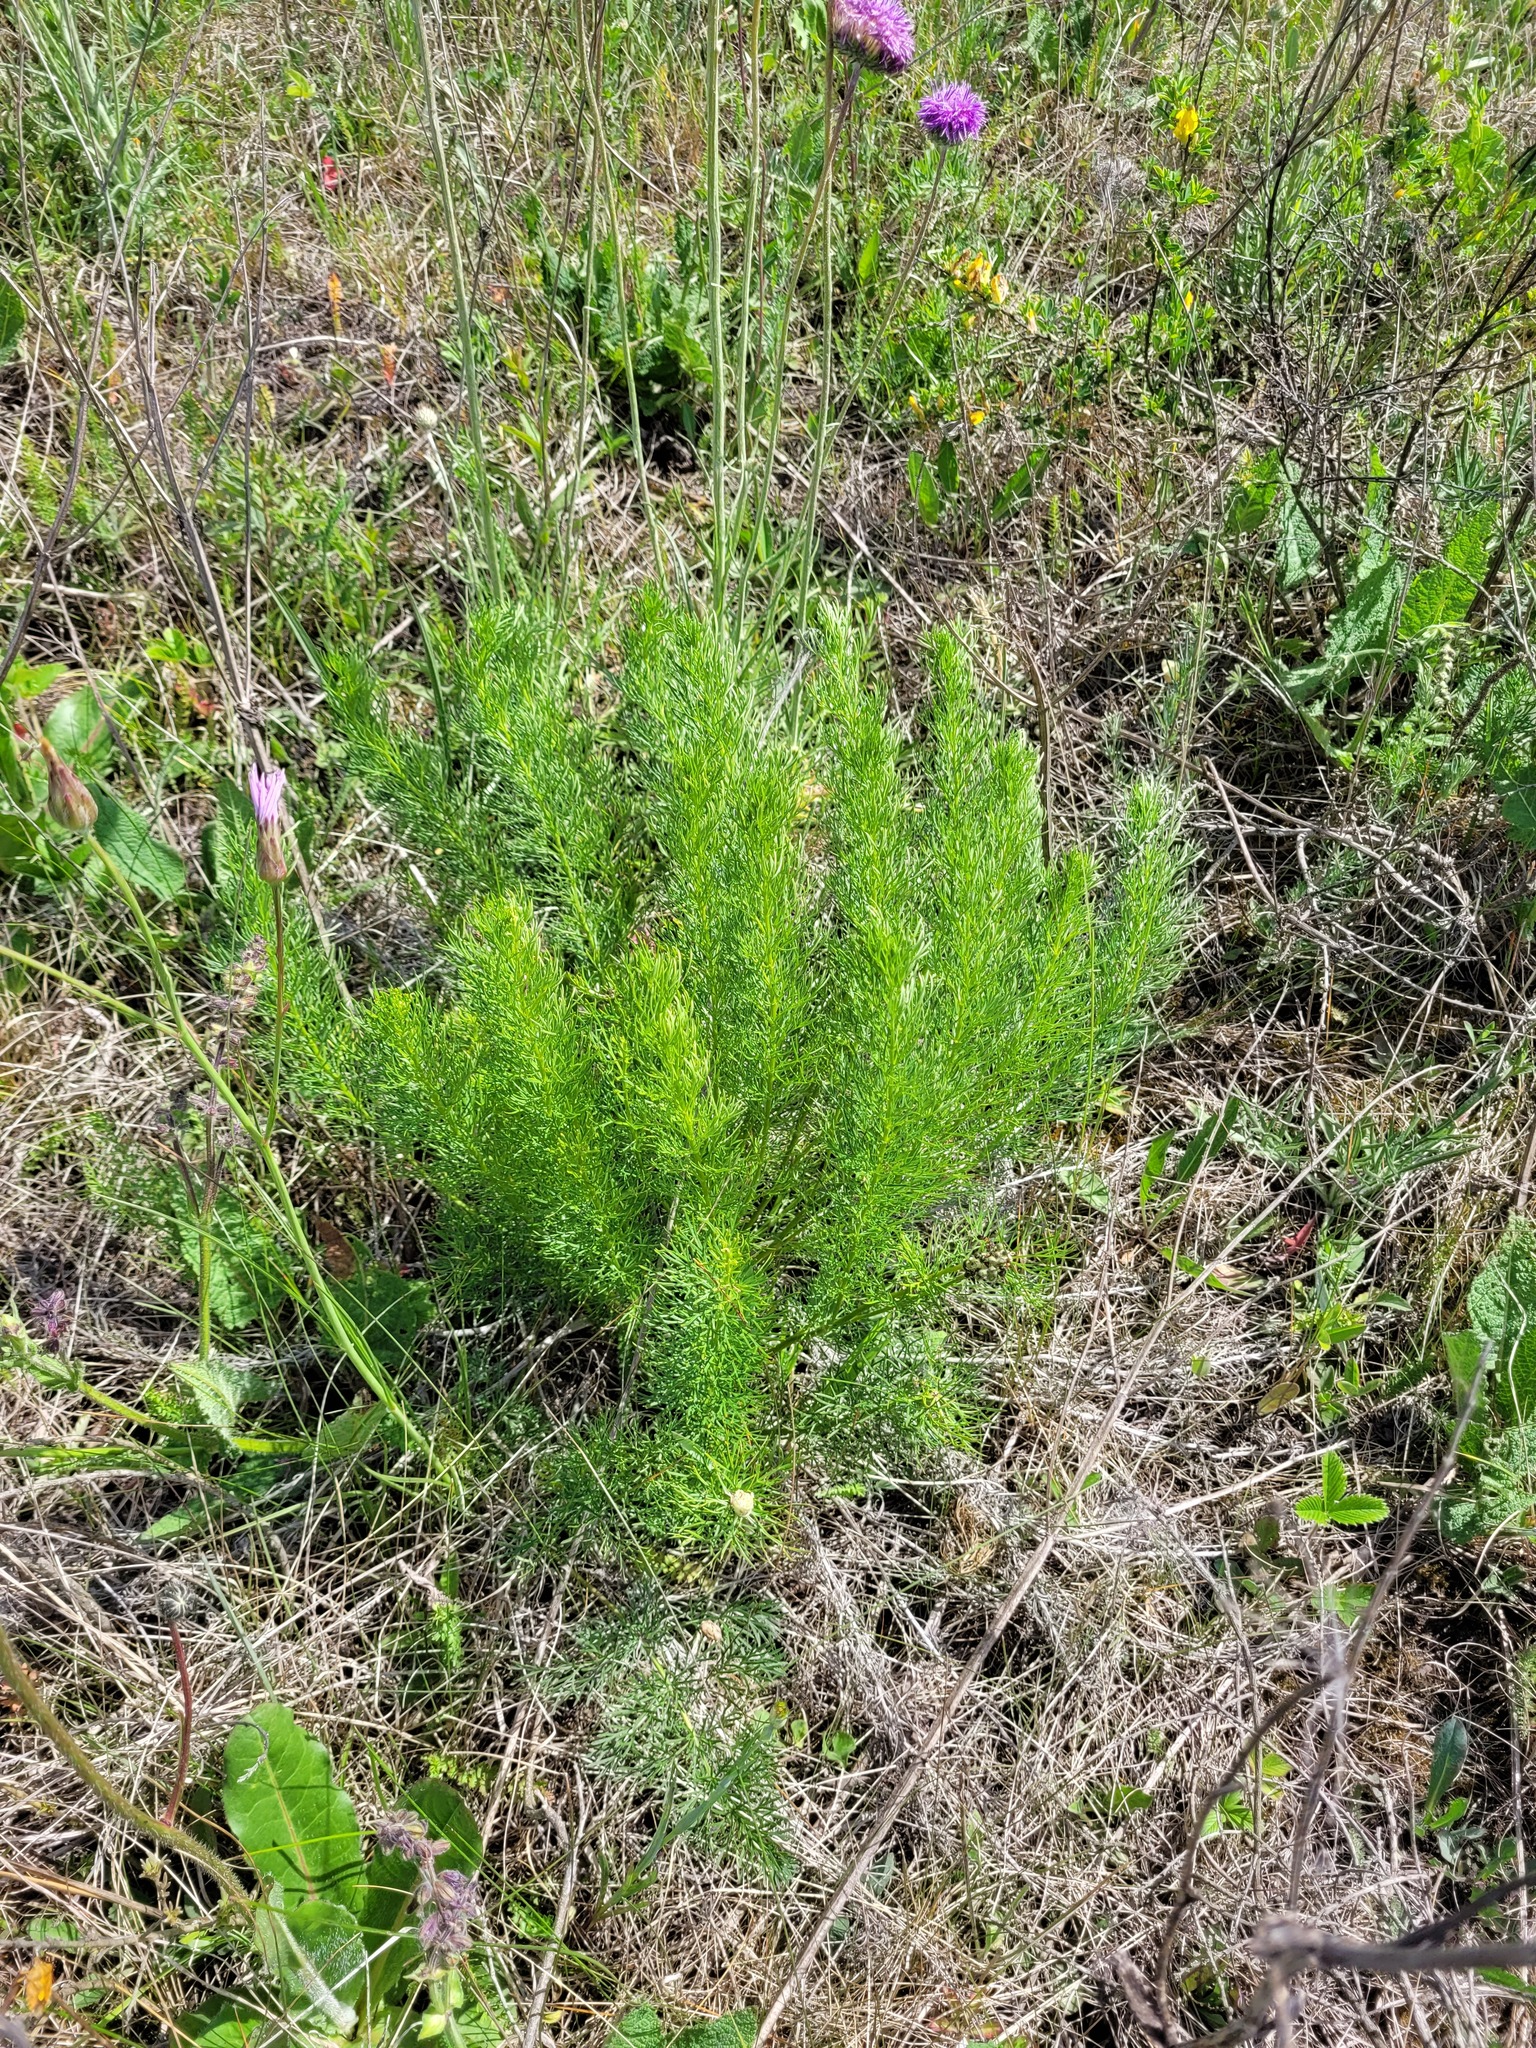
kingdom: Plantae
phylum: Tracheophyta
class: Magnoliopsida
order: Ranunculales
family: Ranunculaceae
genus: Adonis
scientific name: Adonis vernalis
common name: Yellow pheasants-eye
